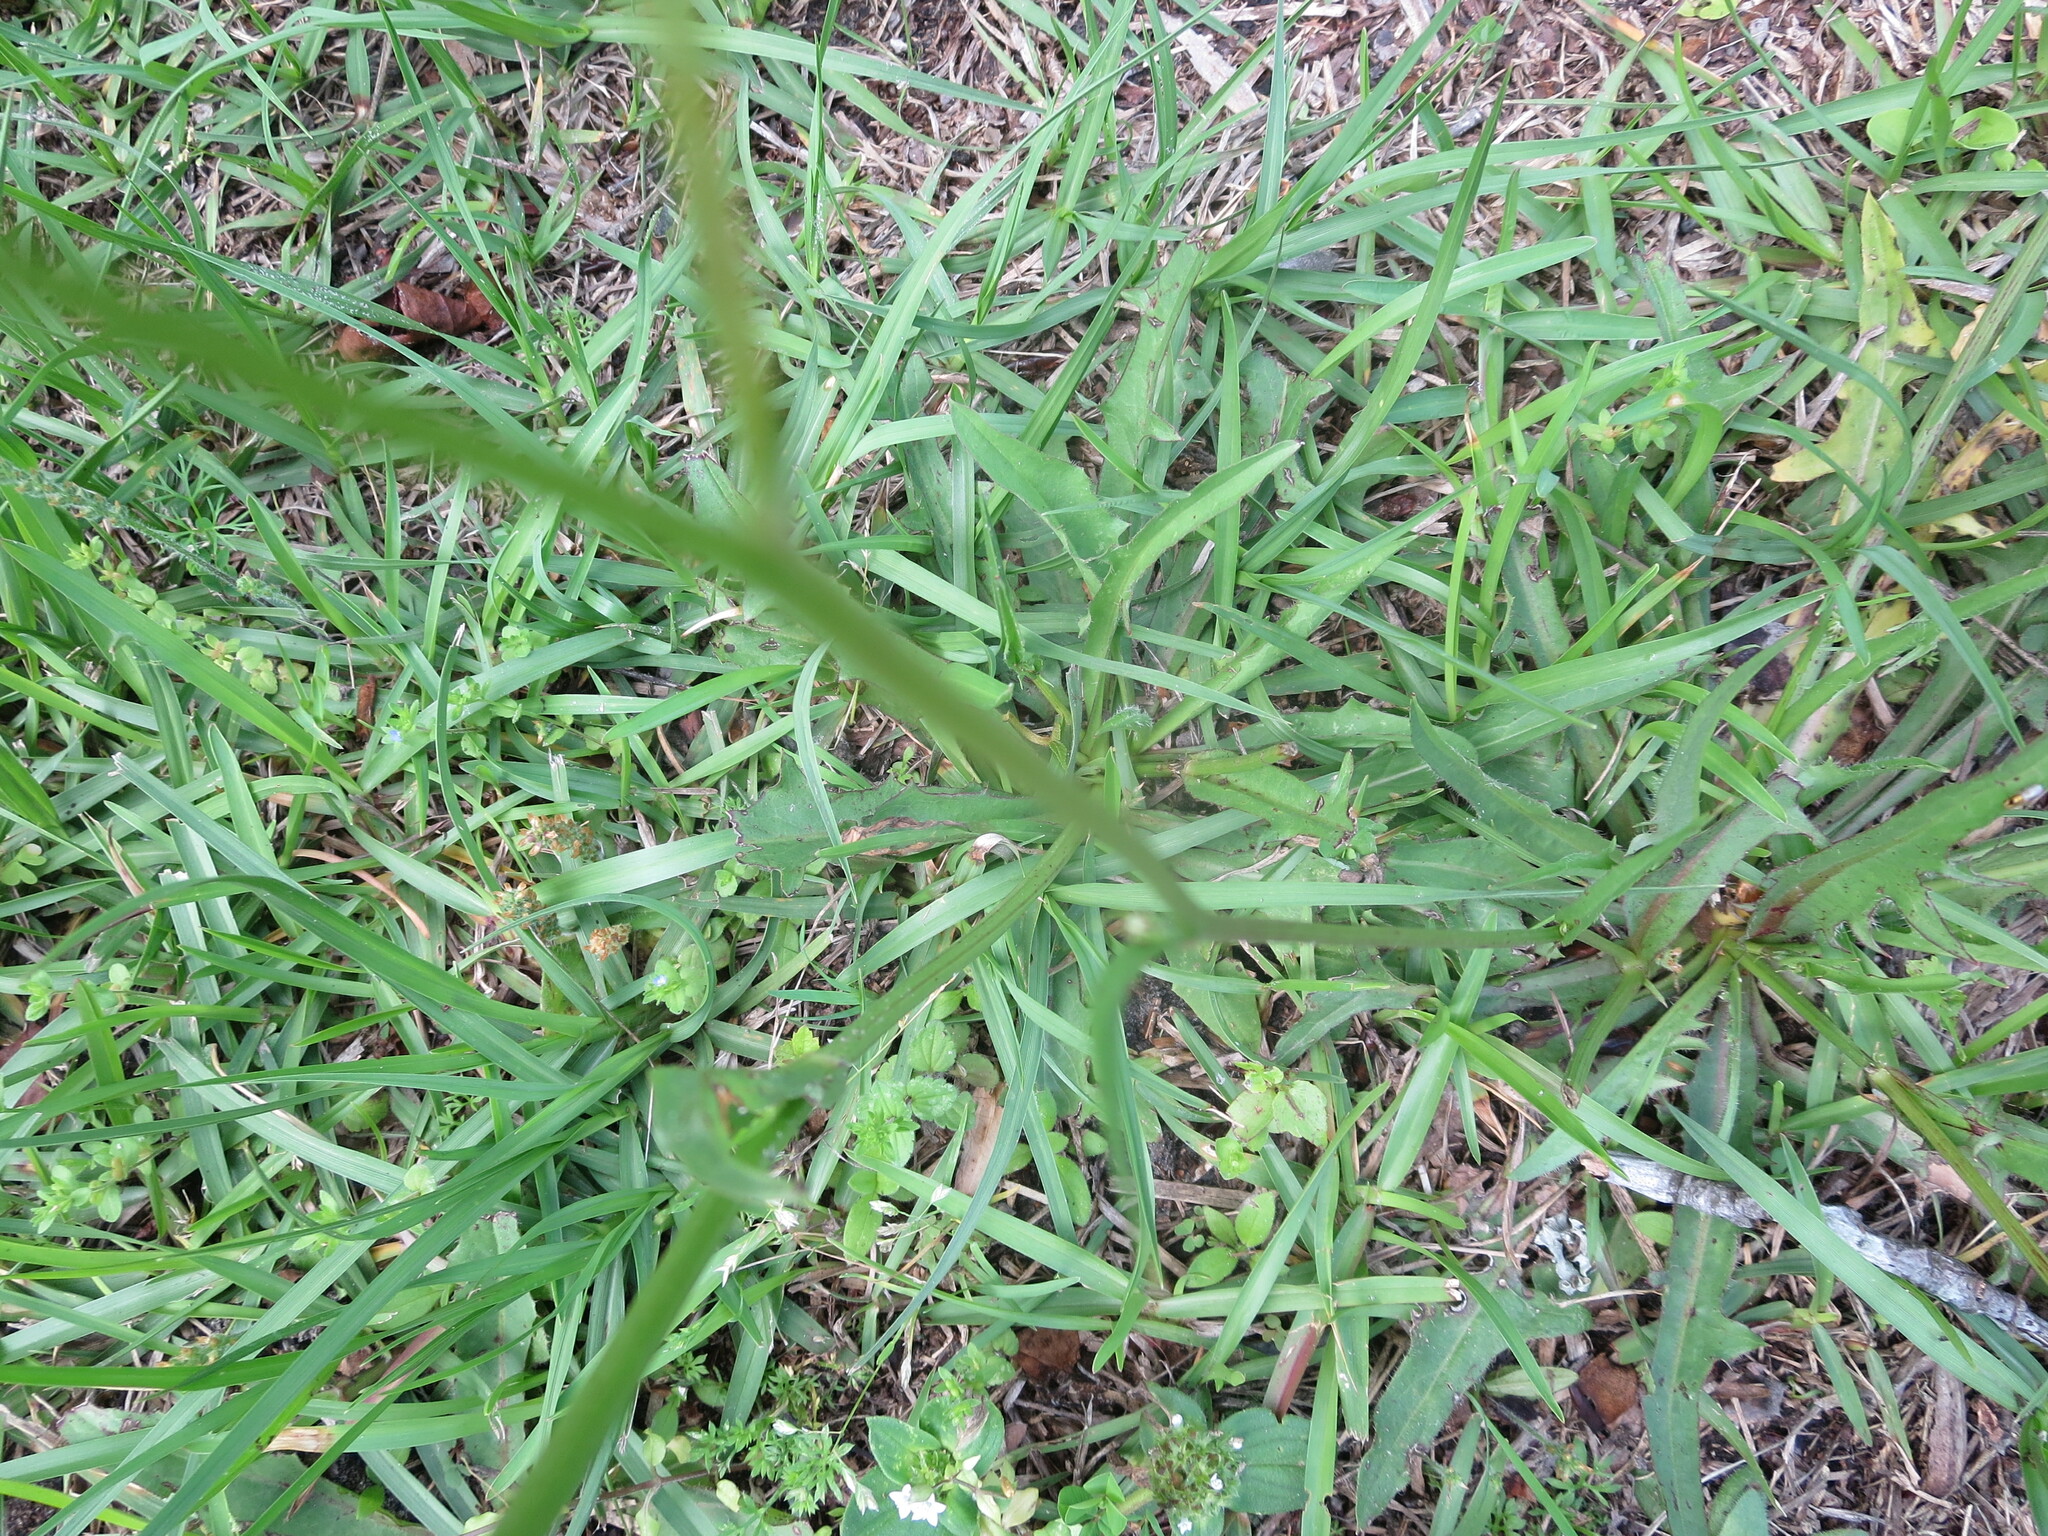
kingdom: Plantae
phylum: Tracheophyta
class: Magnoliopsida
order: Asterales
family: Asteraceae
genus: Hypochaeris
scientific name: Hypochaeris albiflora
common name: White flatweed
